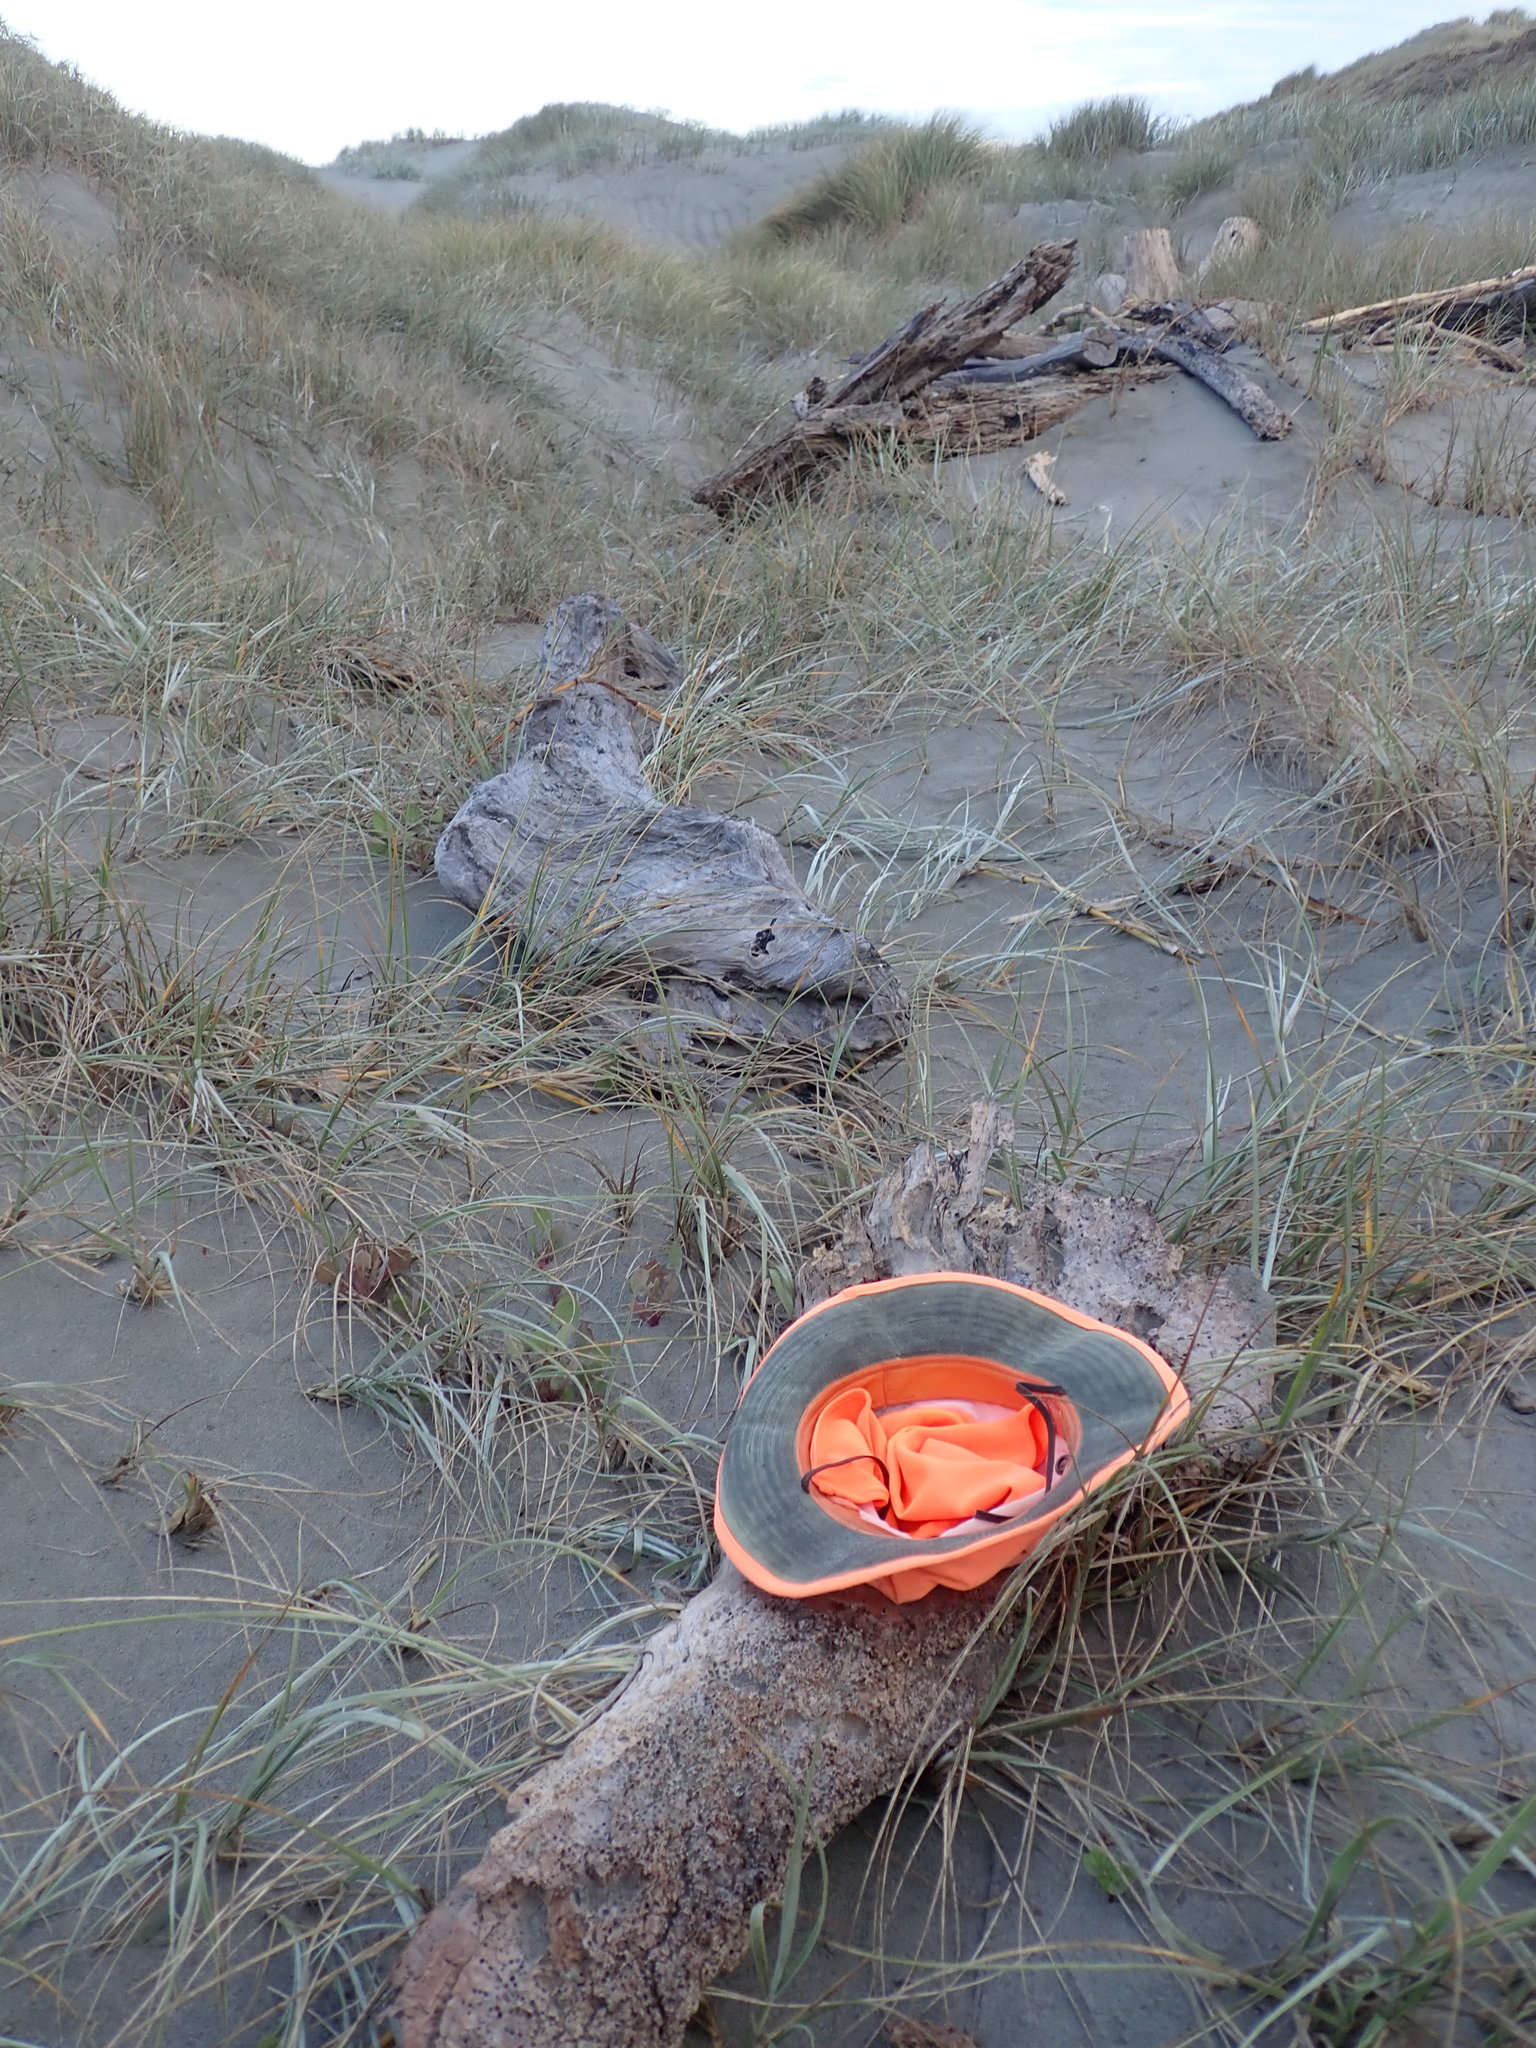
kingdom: Animalia
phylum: Arthropoda
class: Arachnida
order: Araneae
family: Theridiidae
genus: Latrodectus
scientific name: Latrodectus katipo
